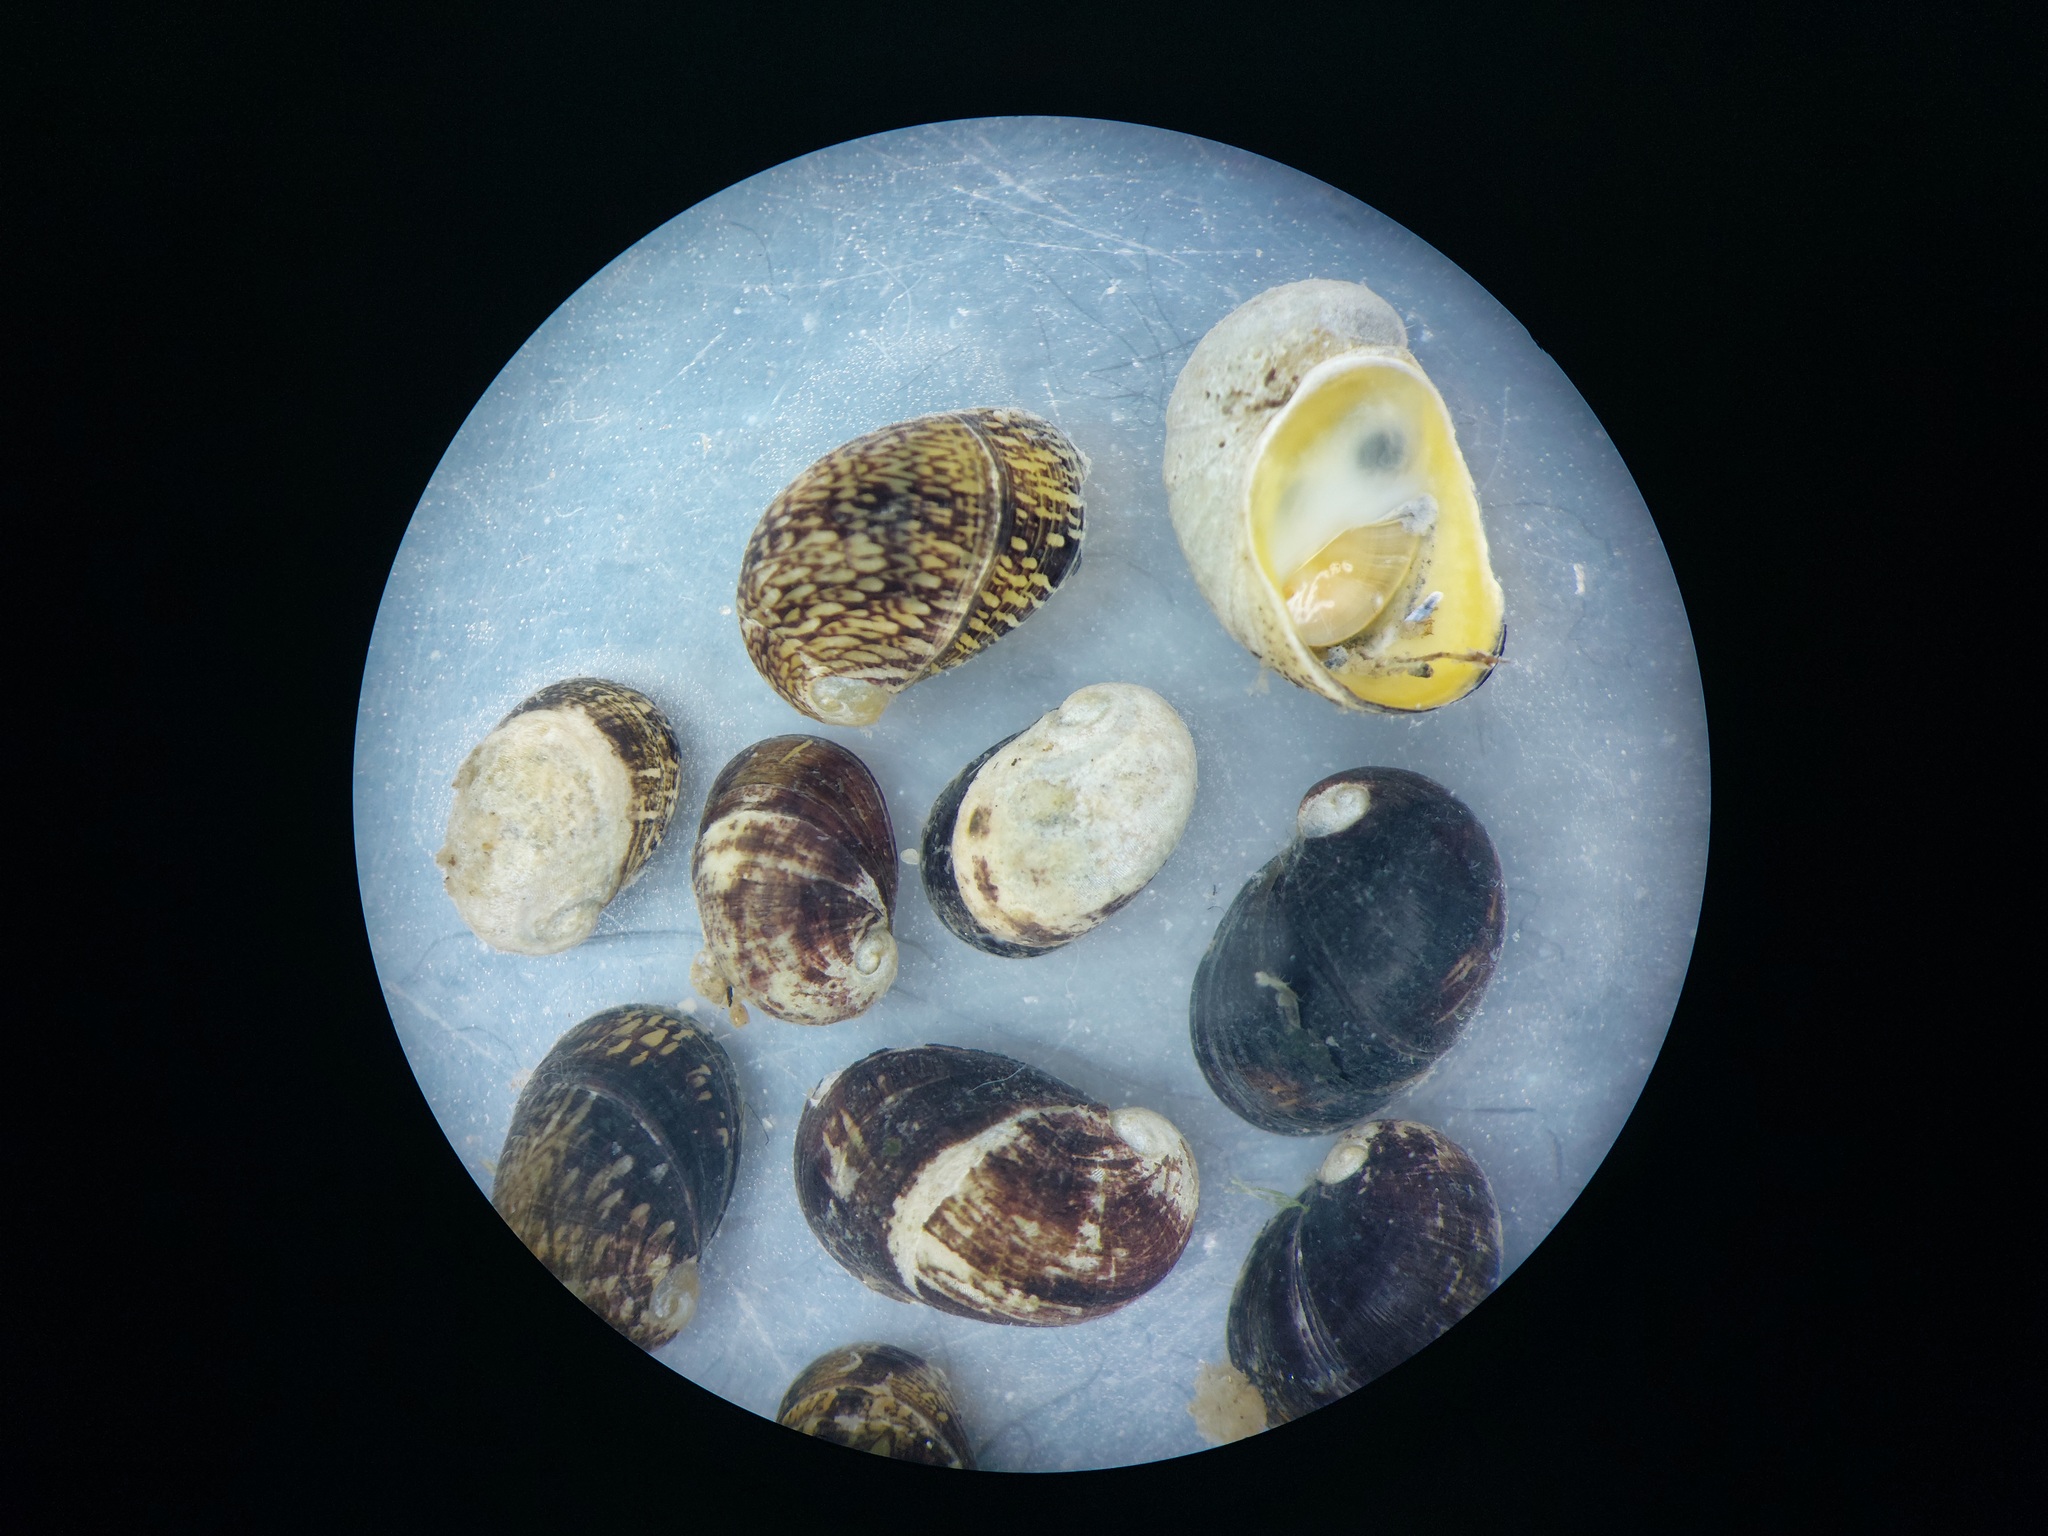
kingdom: Animalia
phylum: Mollusca
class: Gastropoda
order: Cycloneritida
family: Neritidae
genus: Theodoxus
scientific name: Theodoxus fluviatilis
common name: River nerite
